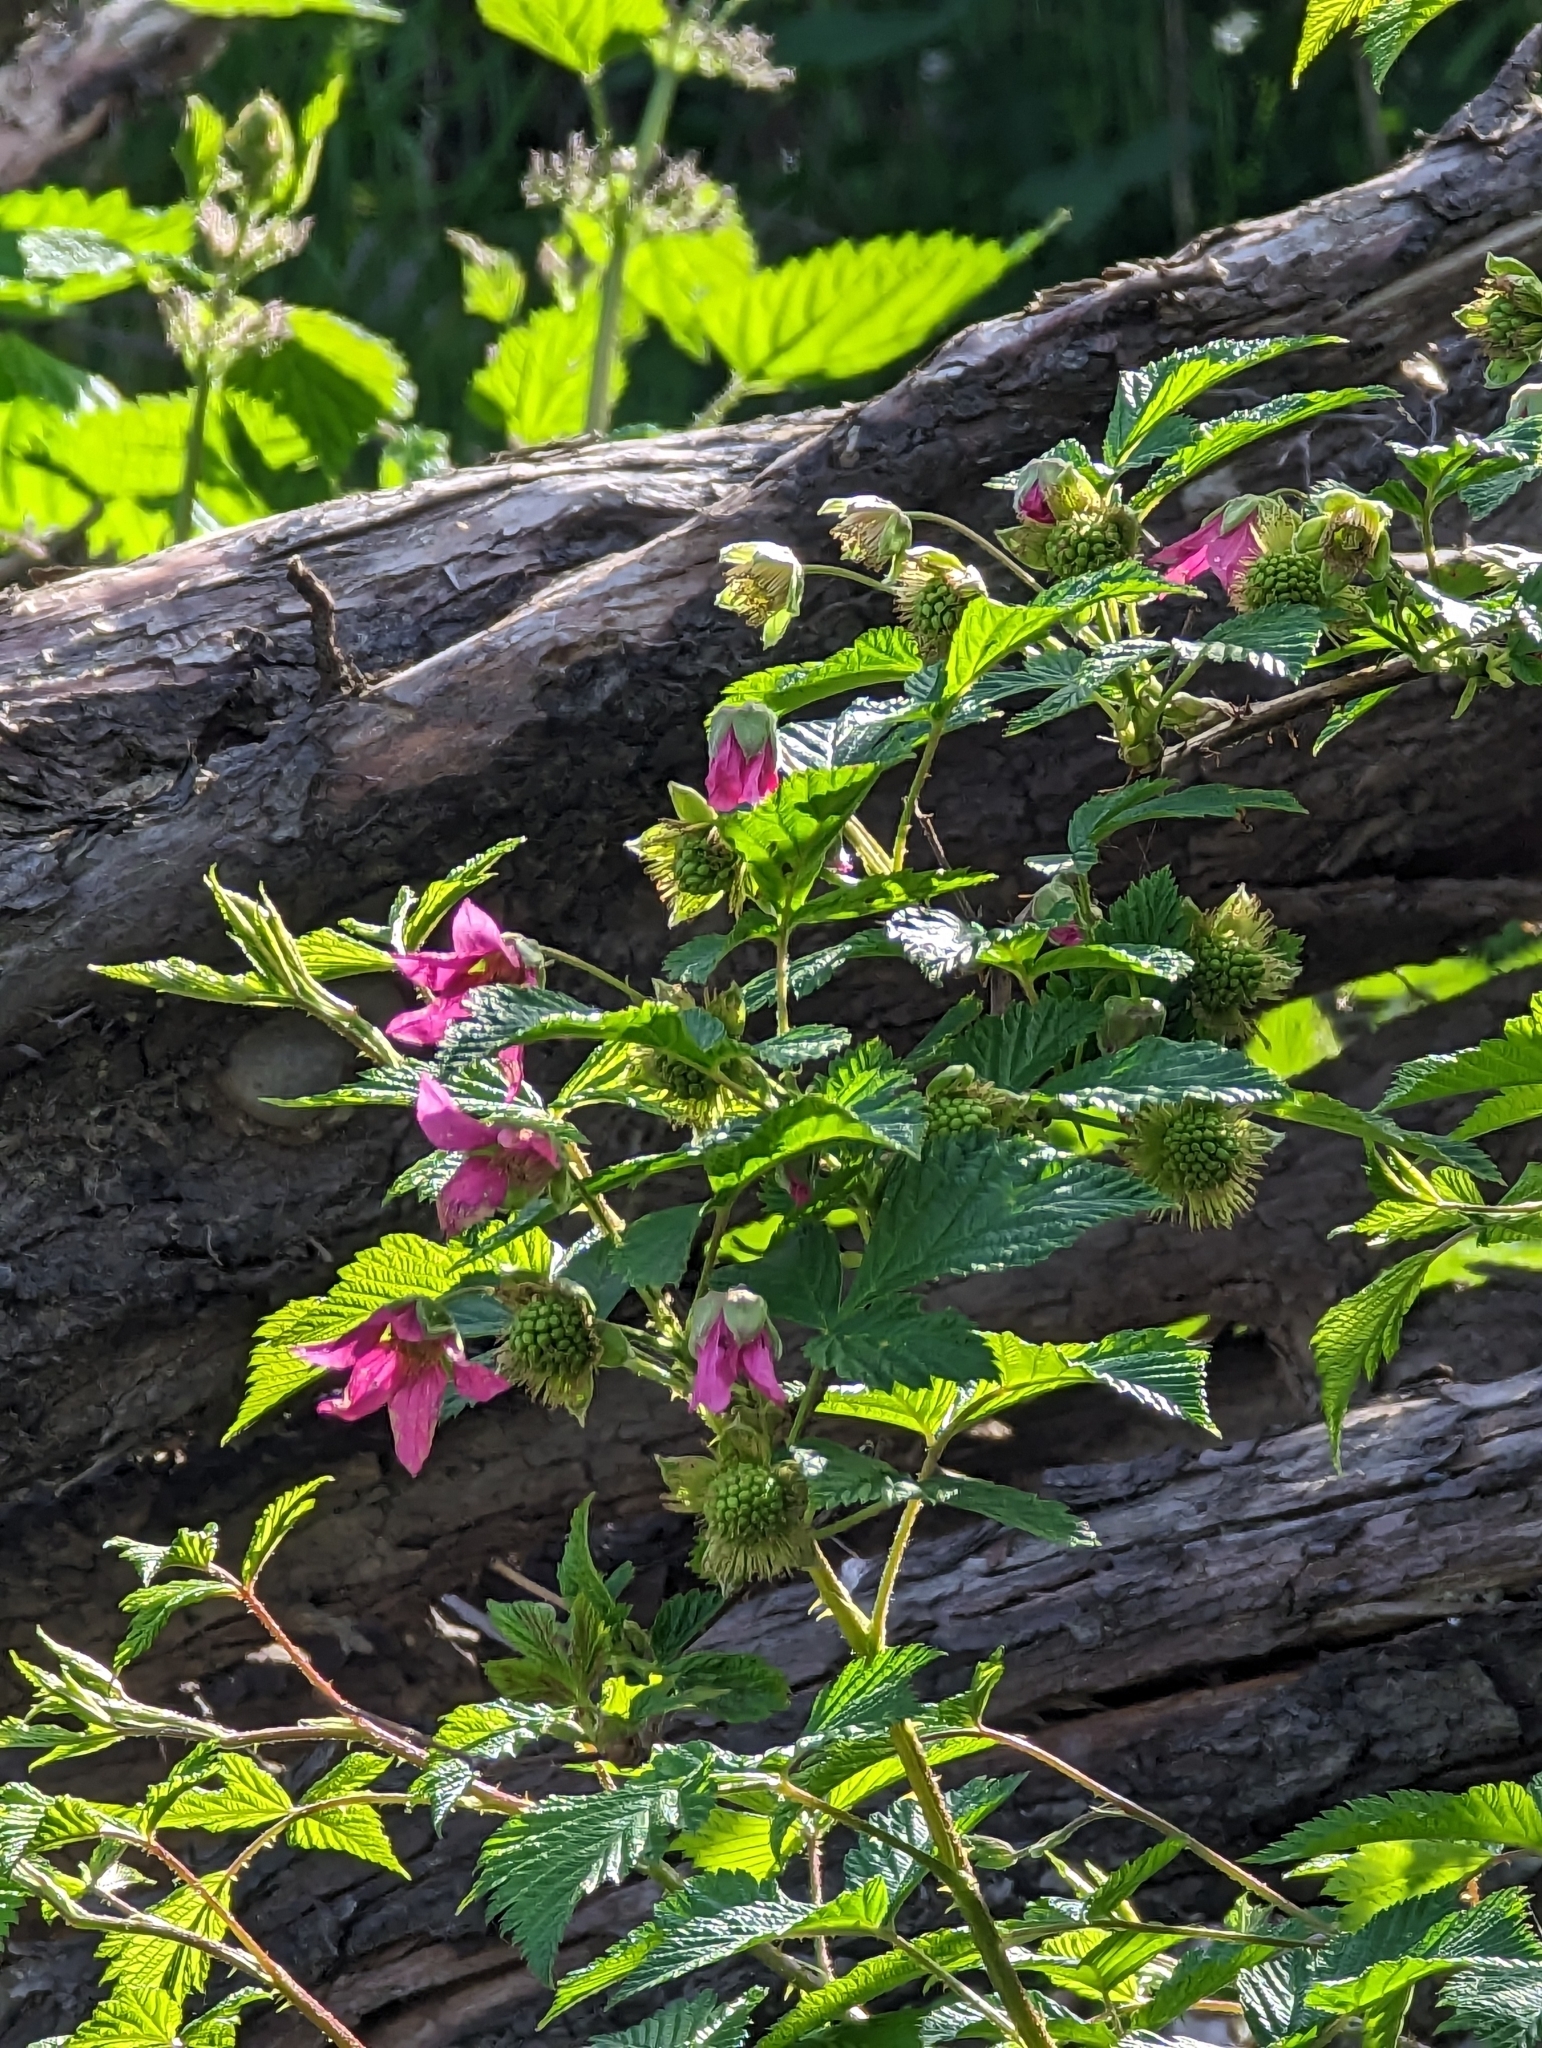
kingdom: Plantae
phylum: Tracheophyta
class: Magnoliopsida
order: Rosales
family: Rosaceae
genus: Rubus
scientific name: Rubus spectabilis
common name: Salmonberry
